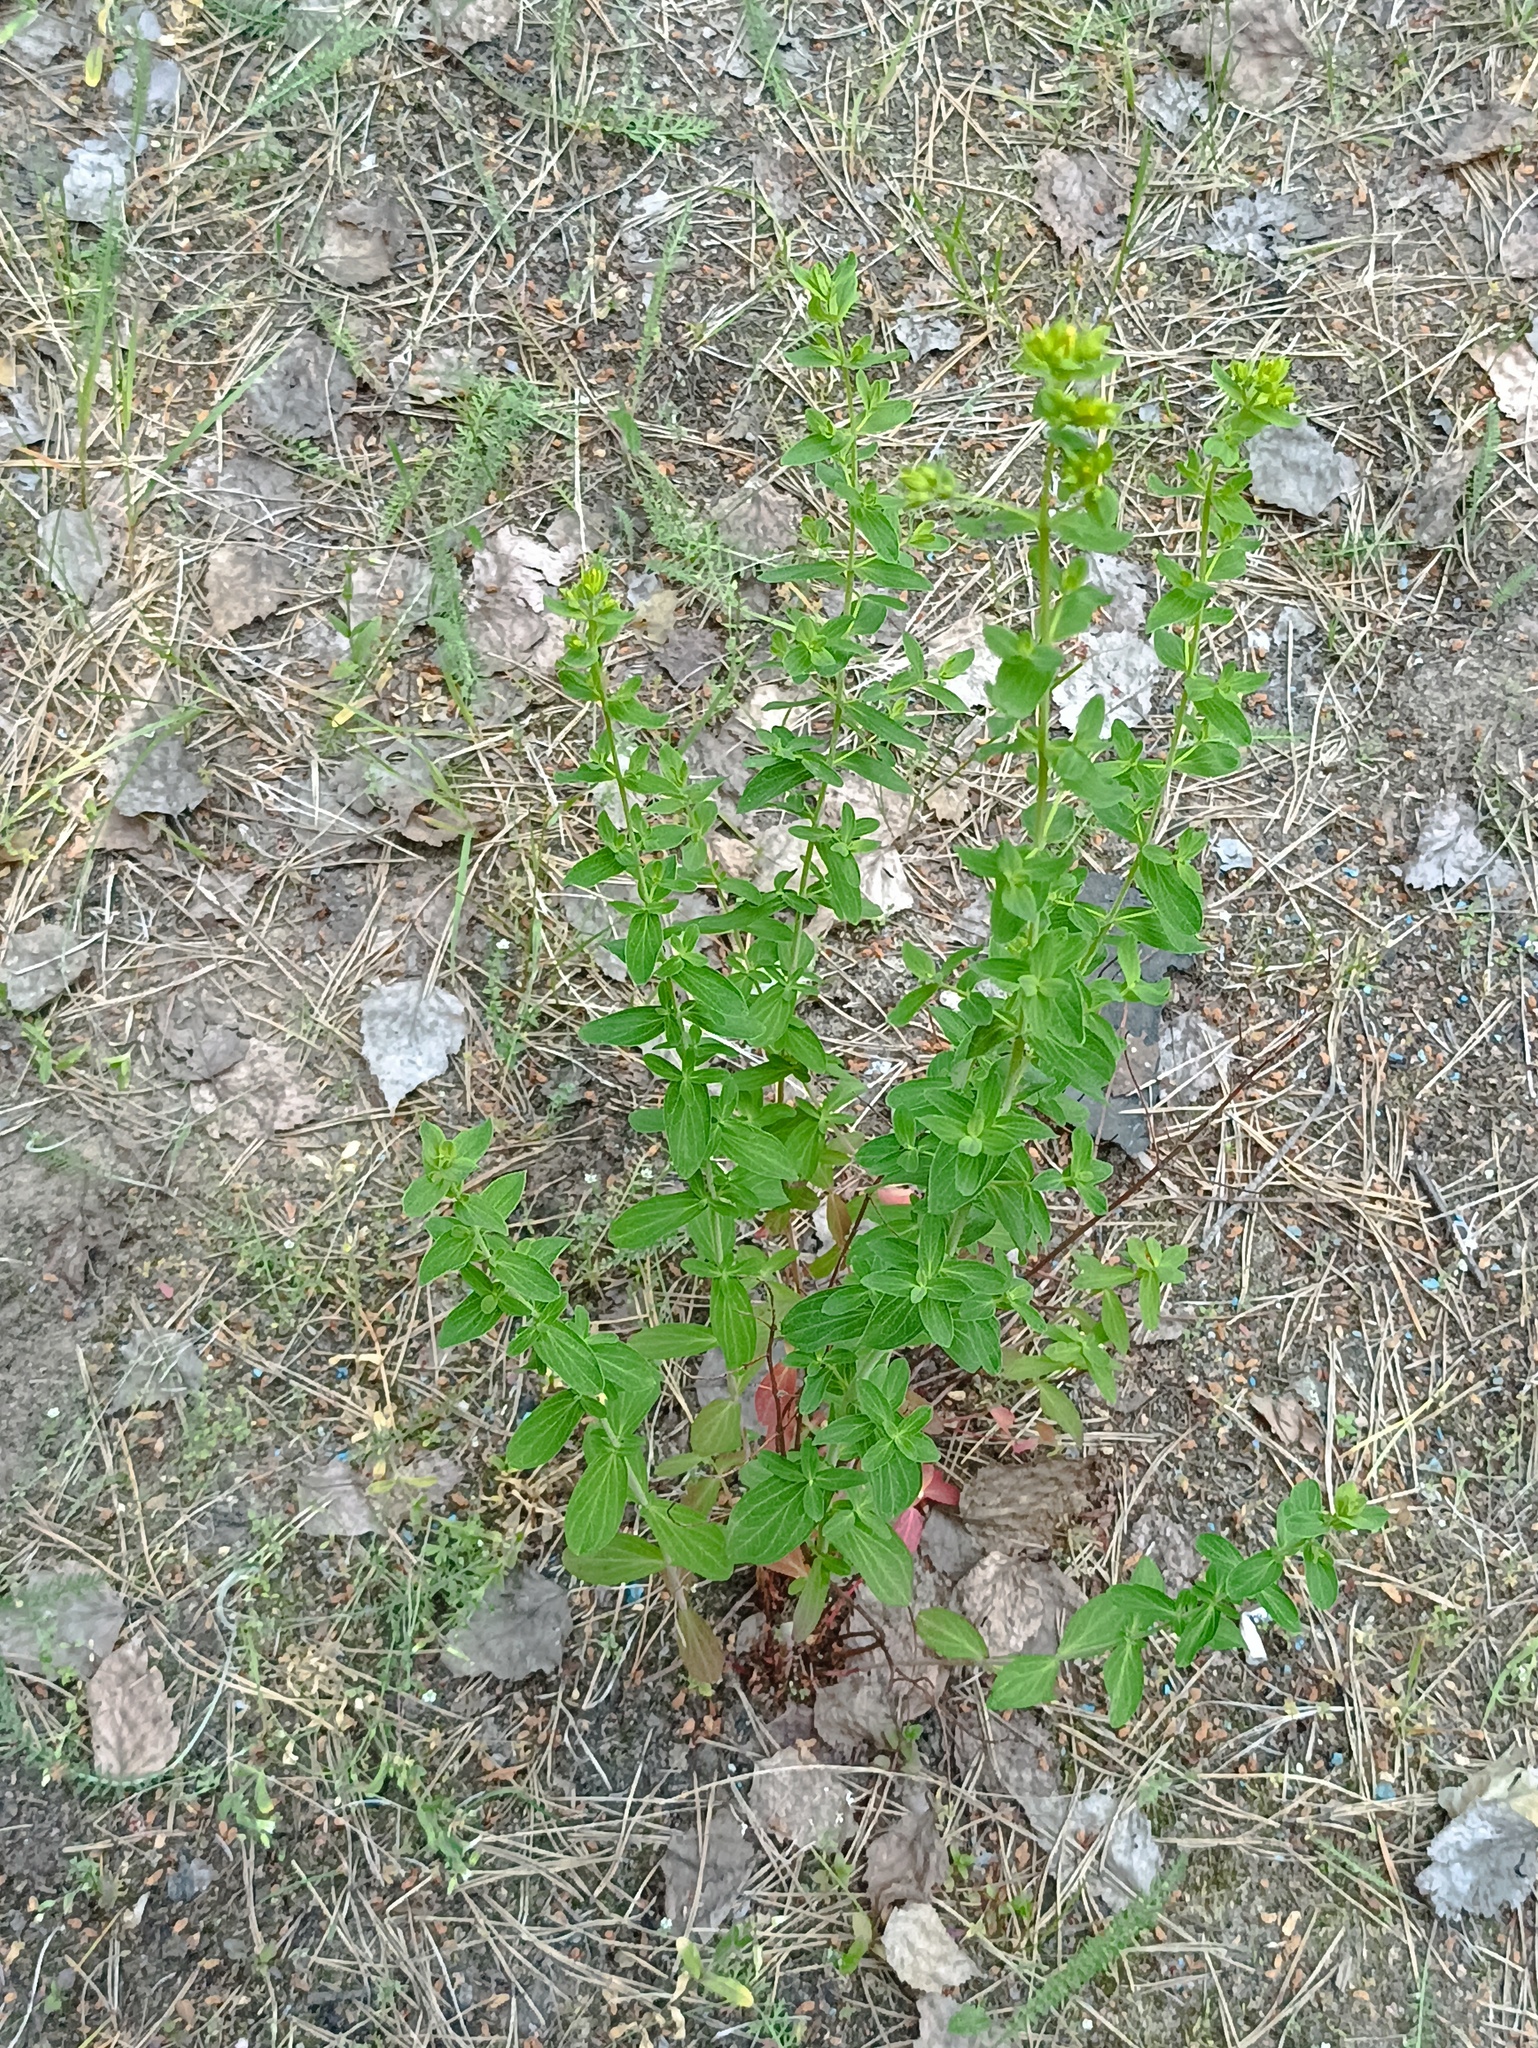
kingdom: Plantae
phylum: Tracheophyta
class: Magnoliopsida
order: Malpighiales
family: Hypericaceae
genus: Hypericum
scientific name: Hypericum perforatum
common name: Common st. johnswort
